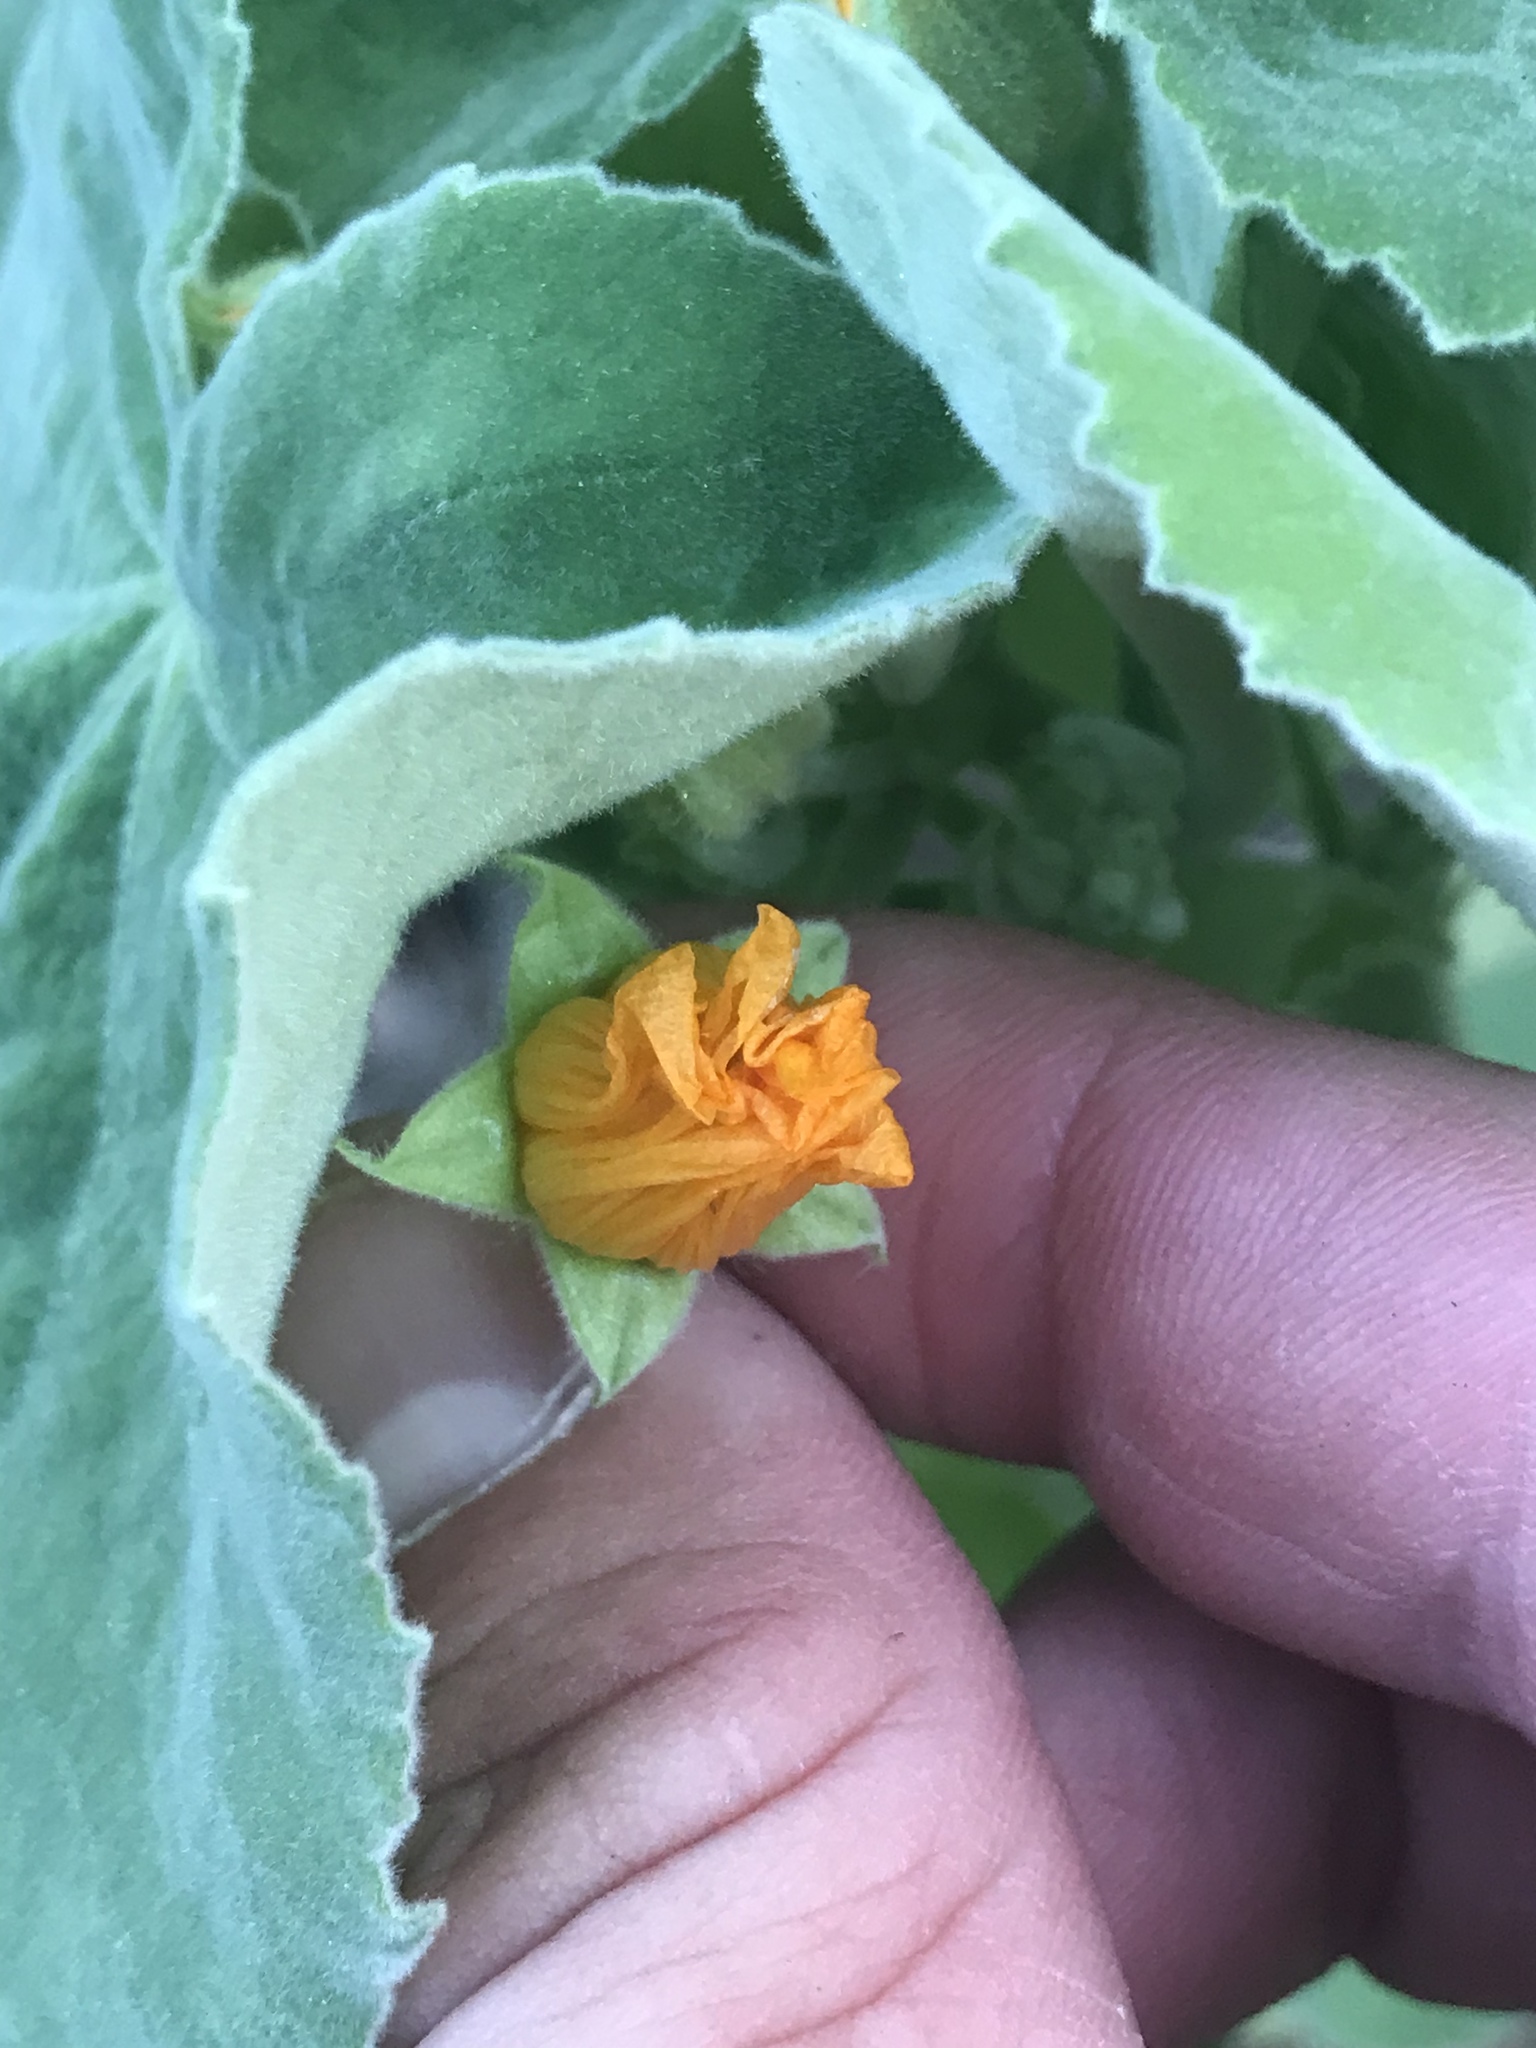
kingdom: Plantae
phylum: Tracheophyta
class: Magnoliopsida
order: Malvales
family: Malvaceae
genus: Allowissadula
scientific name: Allowissadula holosericea
